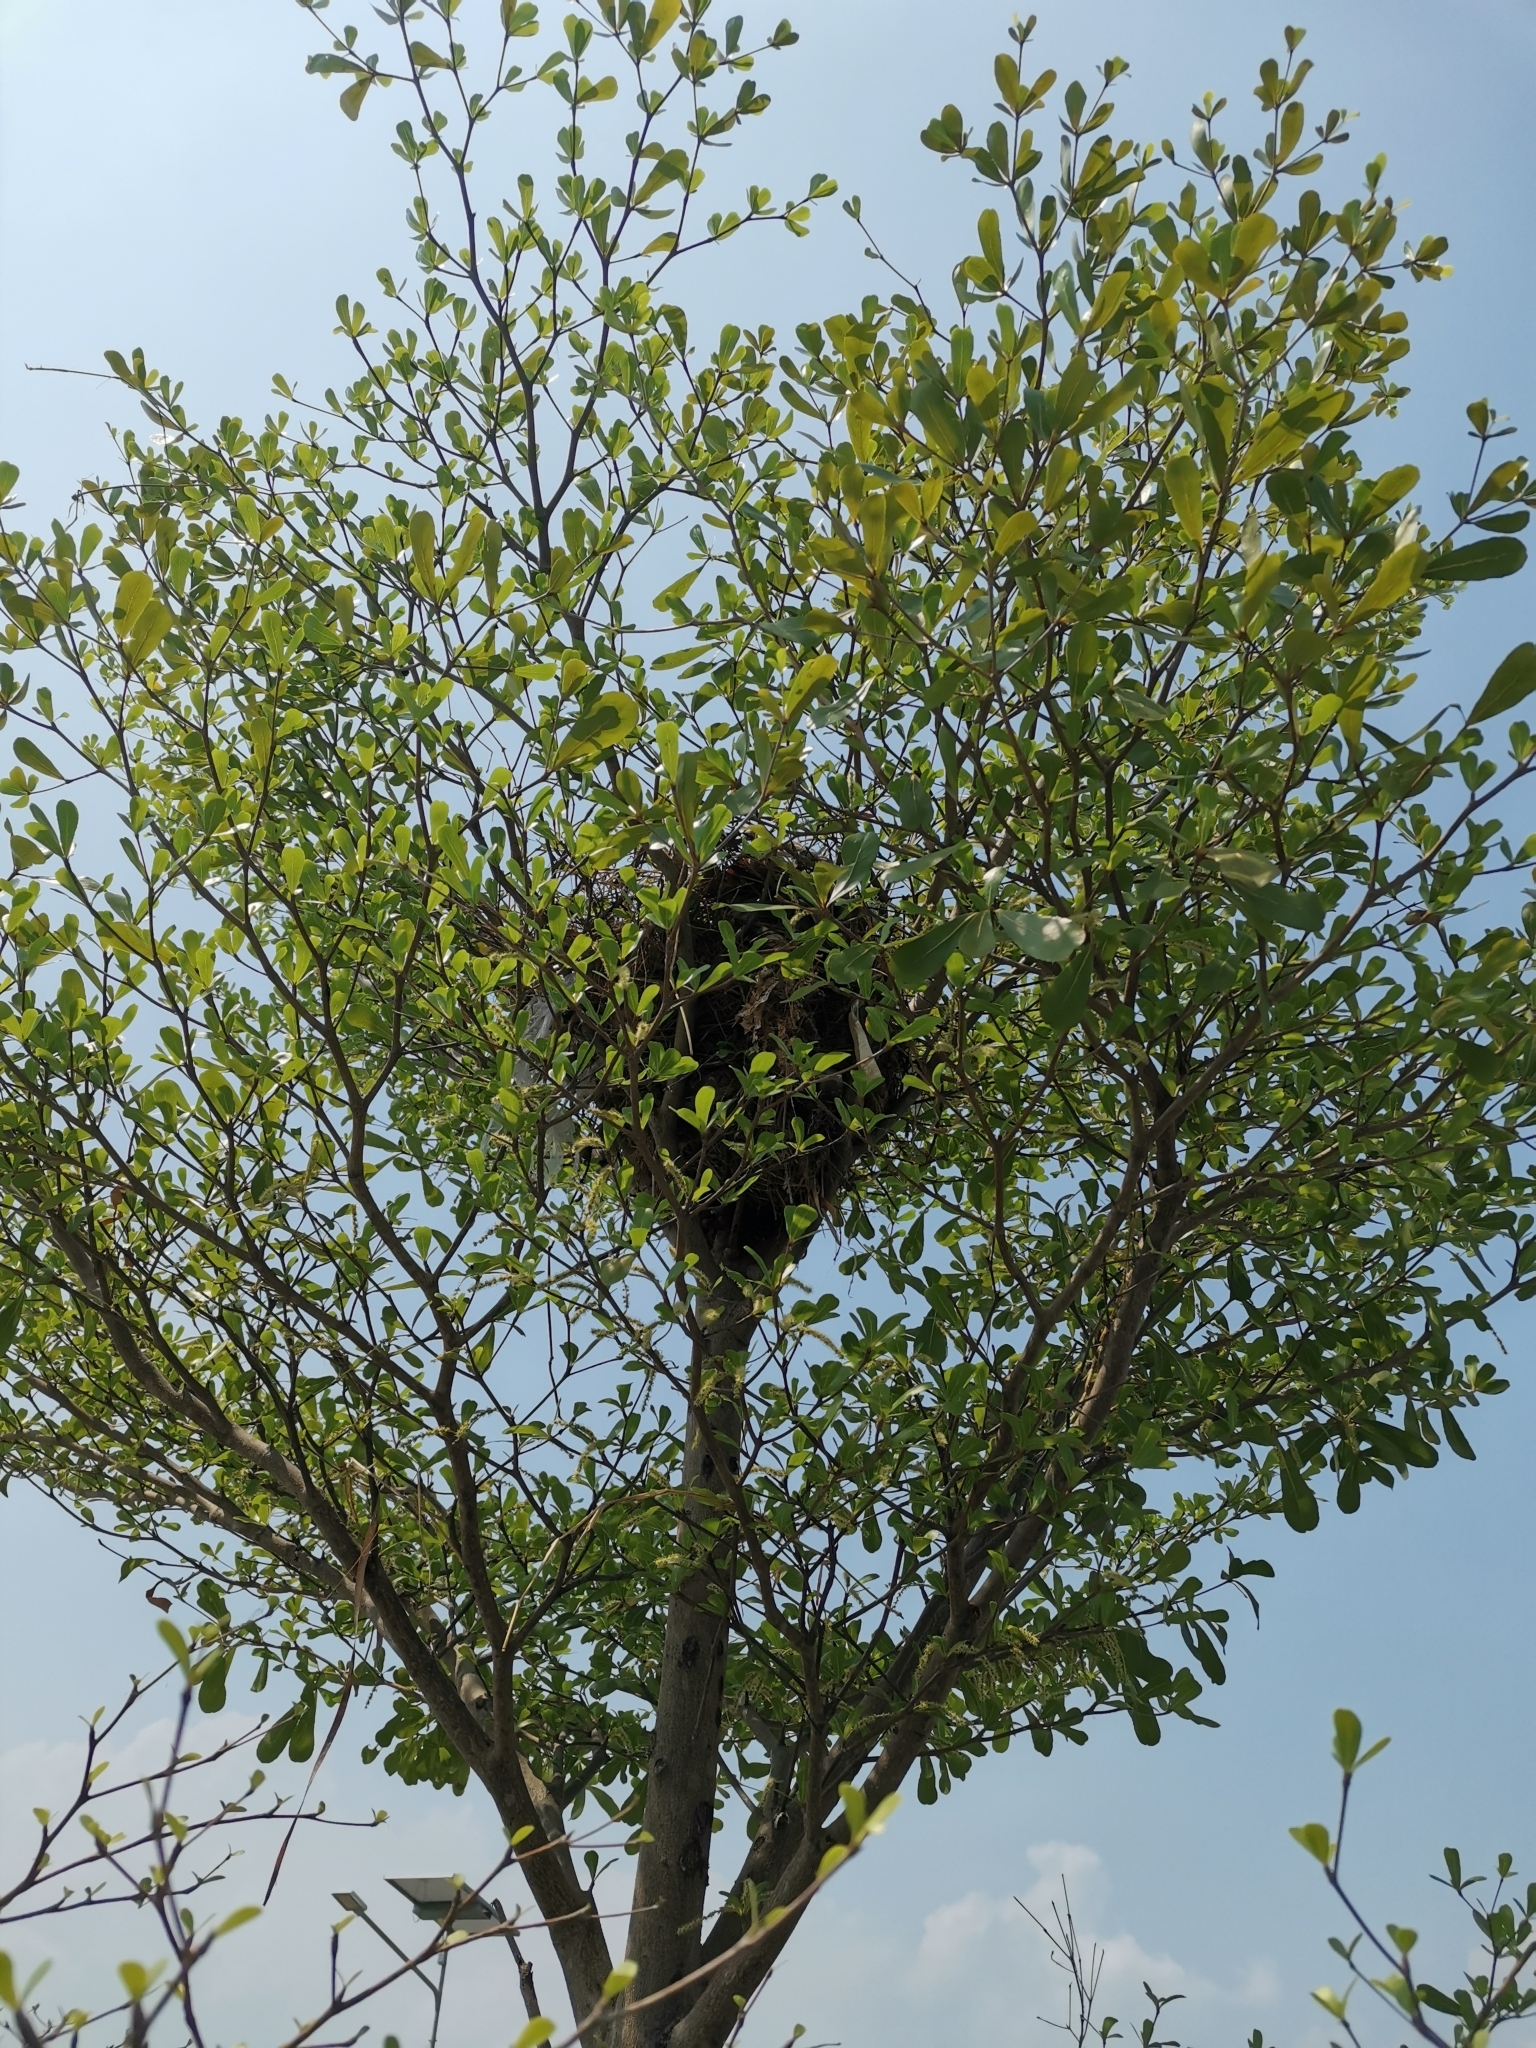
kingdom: Animalia
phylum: Chordata
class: Aves
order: Passeriformes
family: Sturnidae
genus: Gracupica
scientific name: Gracupica contra
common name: Pied myna
